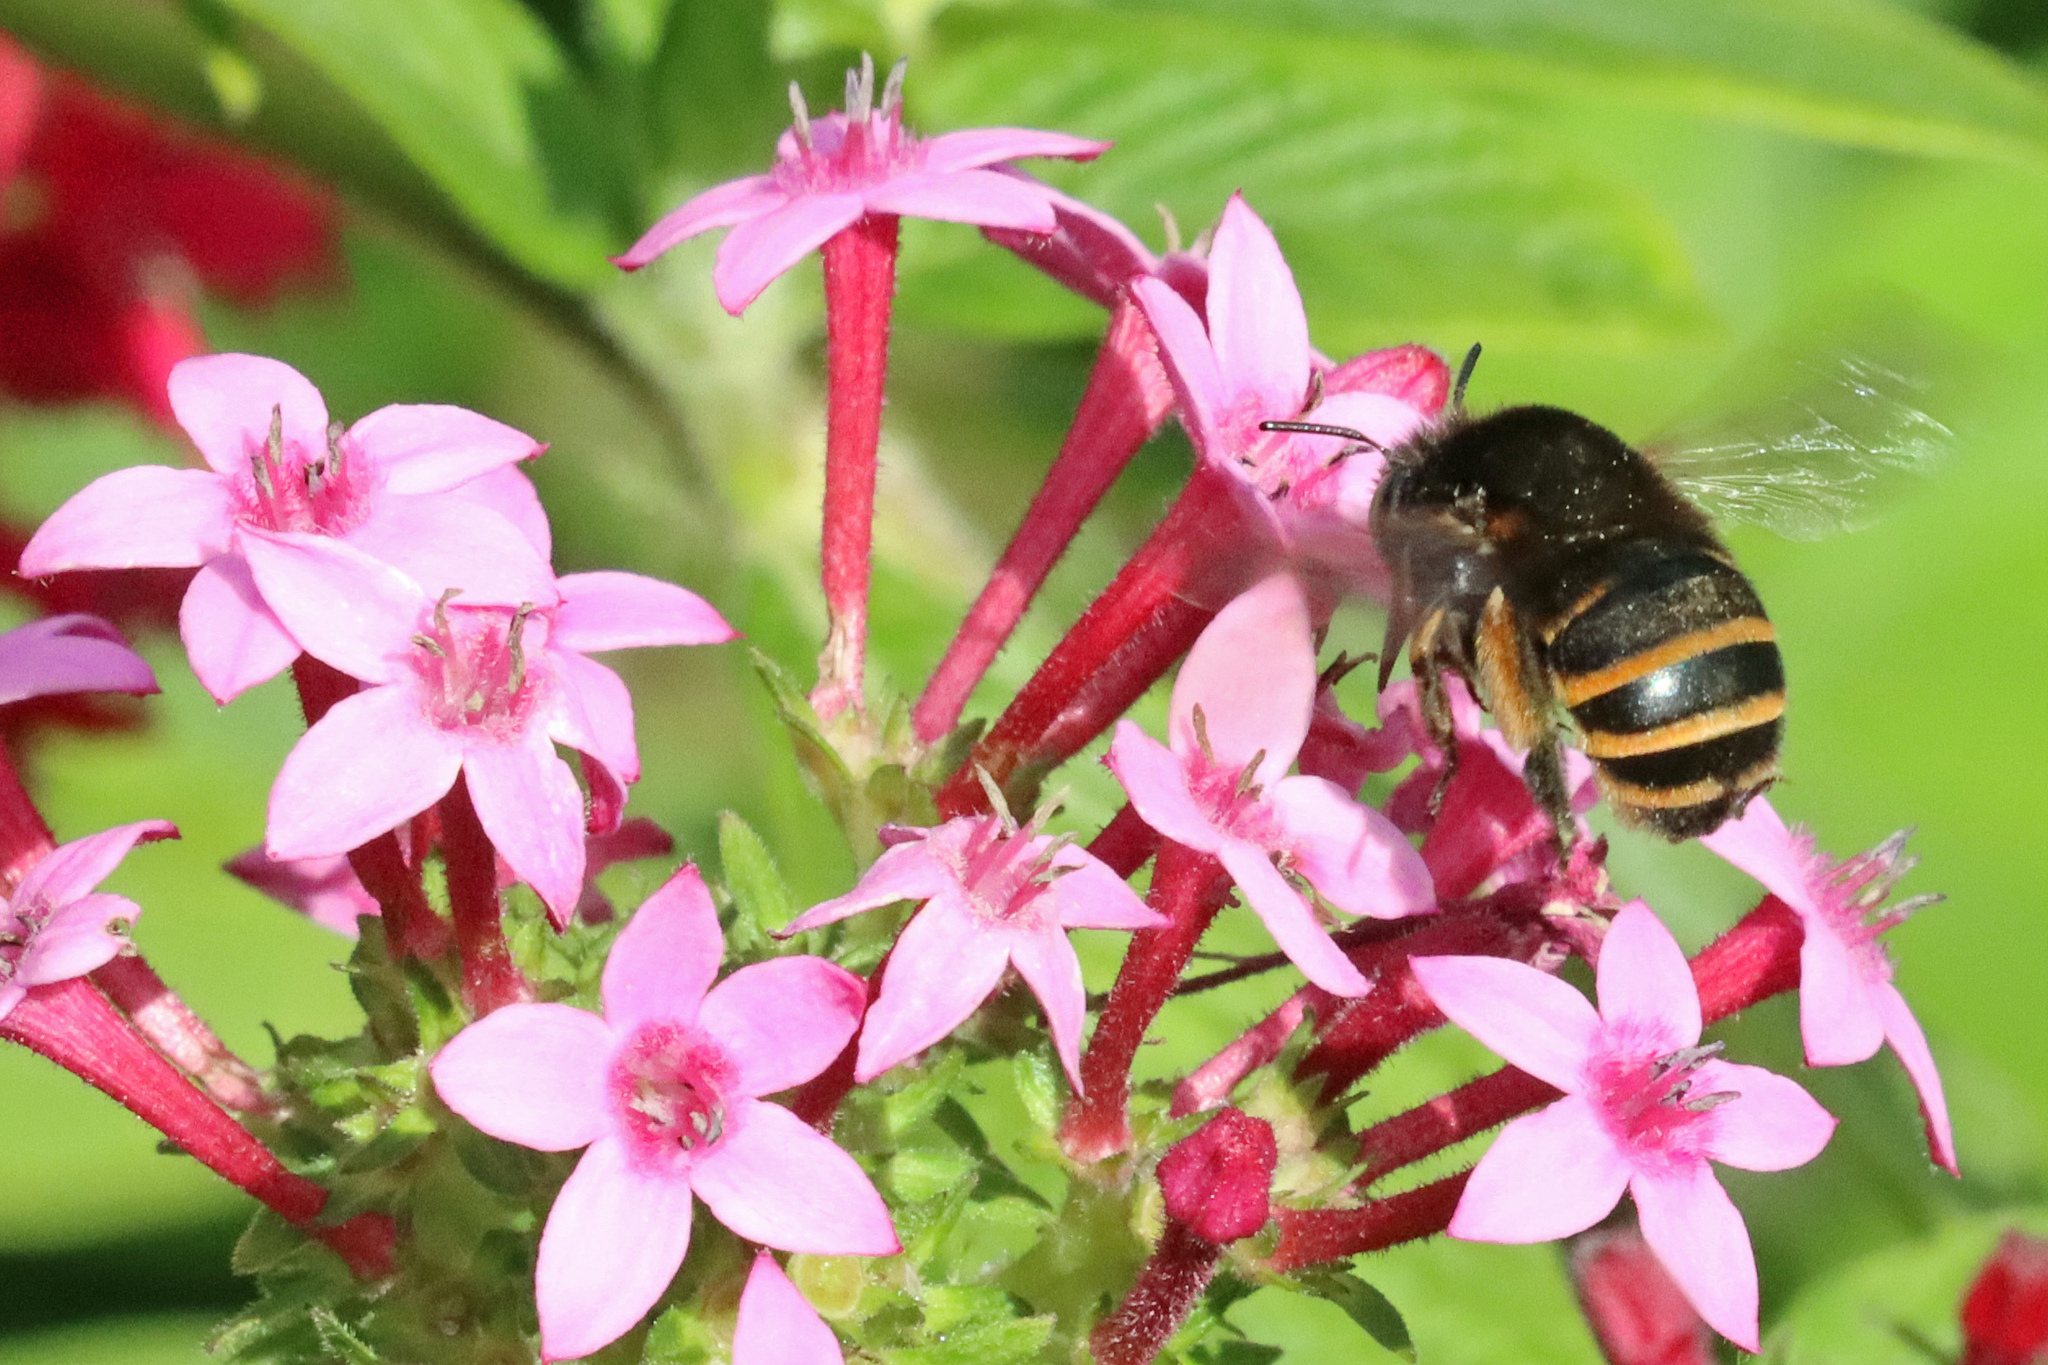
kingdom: Animalia
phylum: Arthropoda
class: Insecta
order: Hymenoptera
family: Apidae
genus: Amegilla
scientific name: Amegilla quadrifasciata
